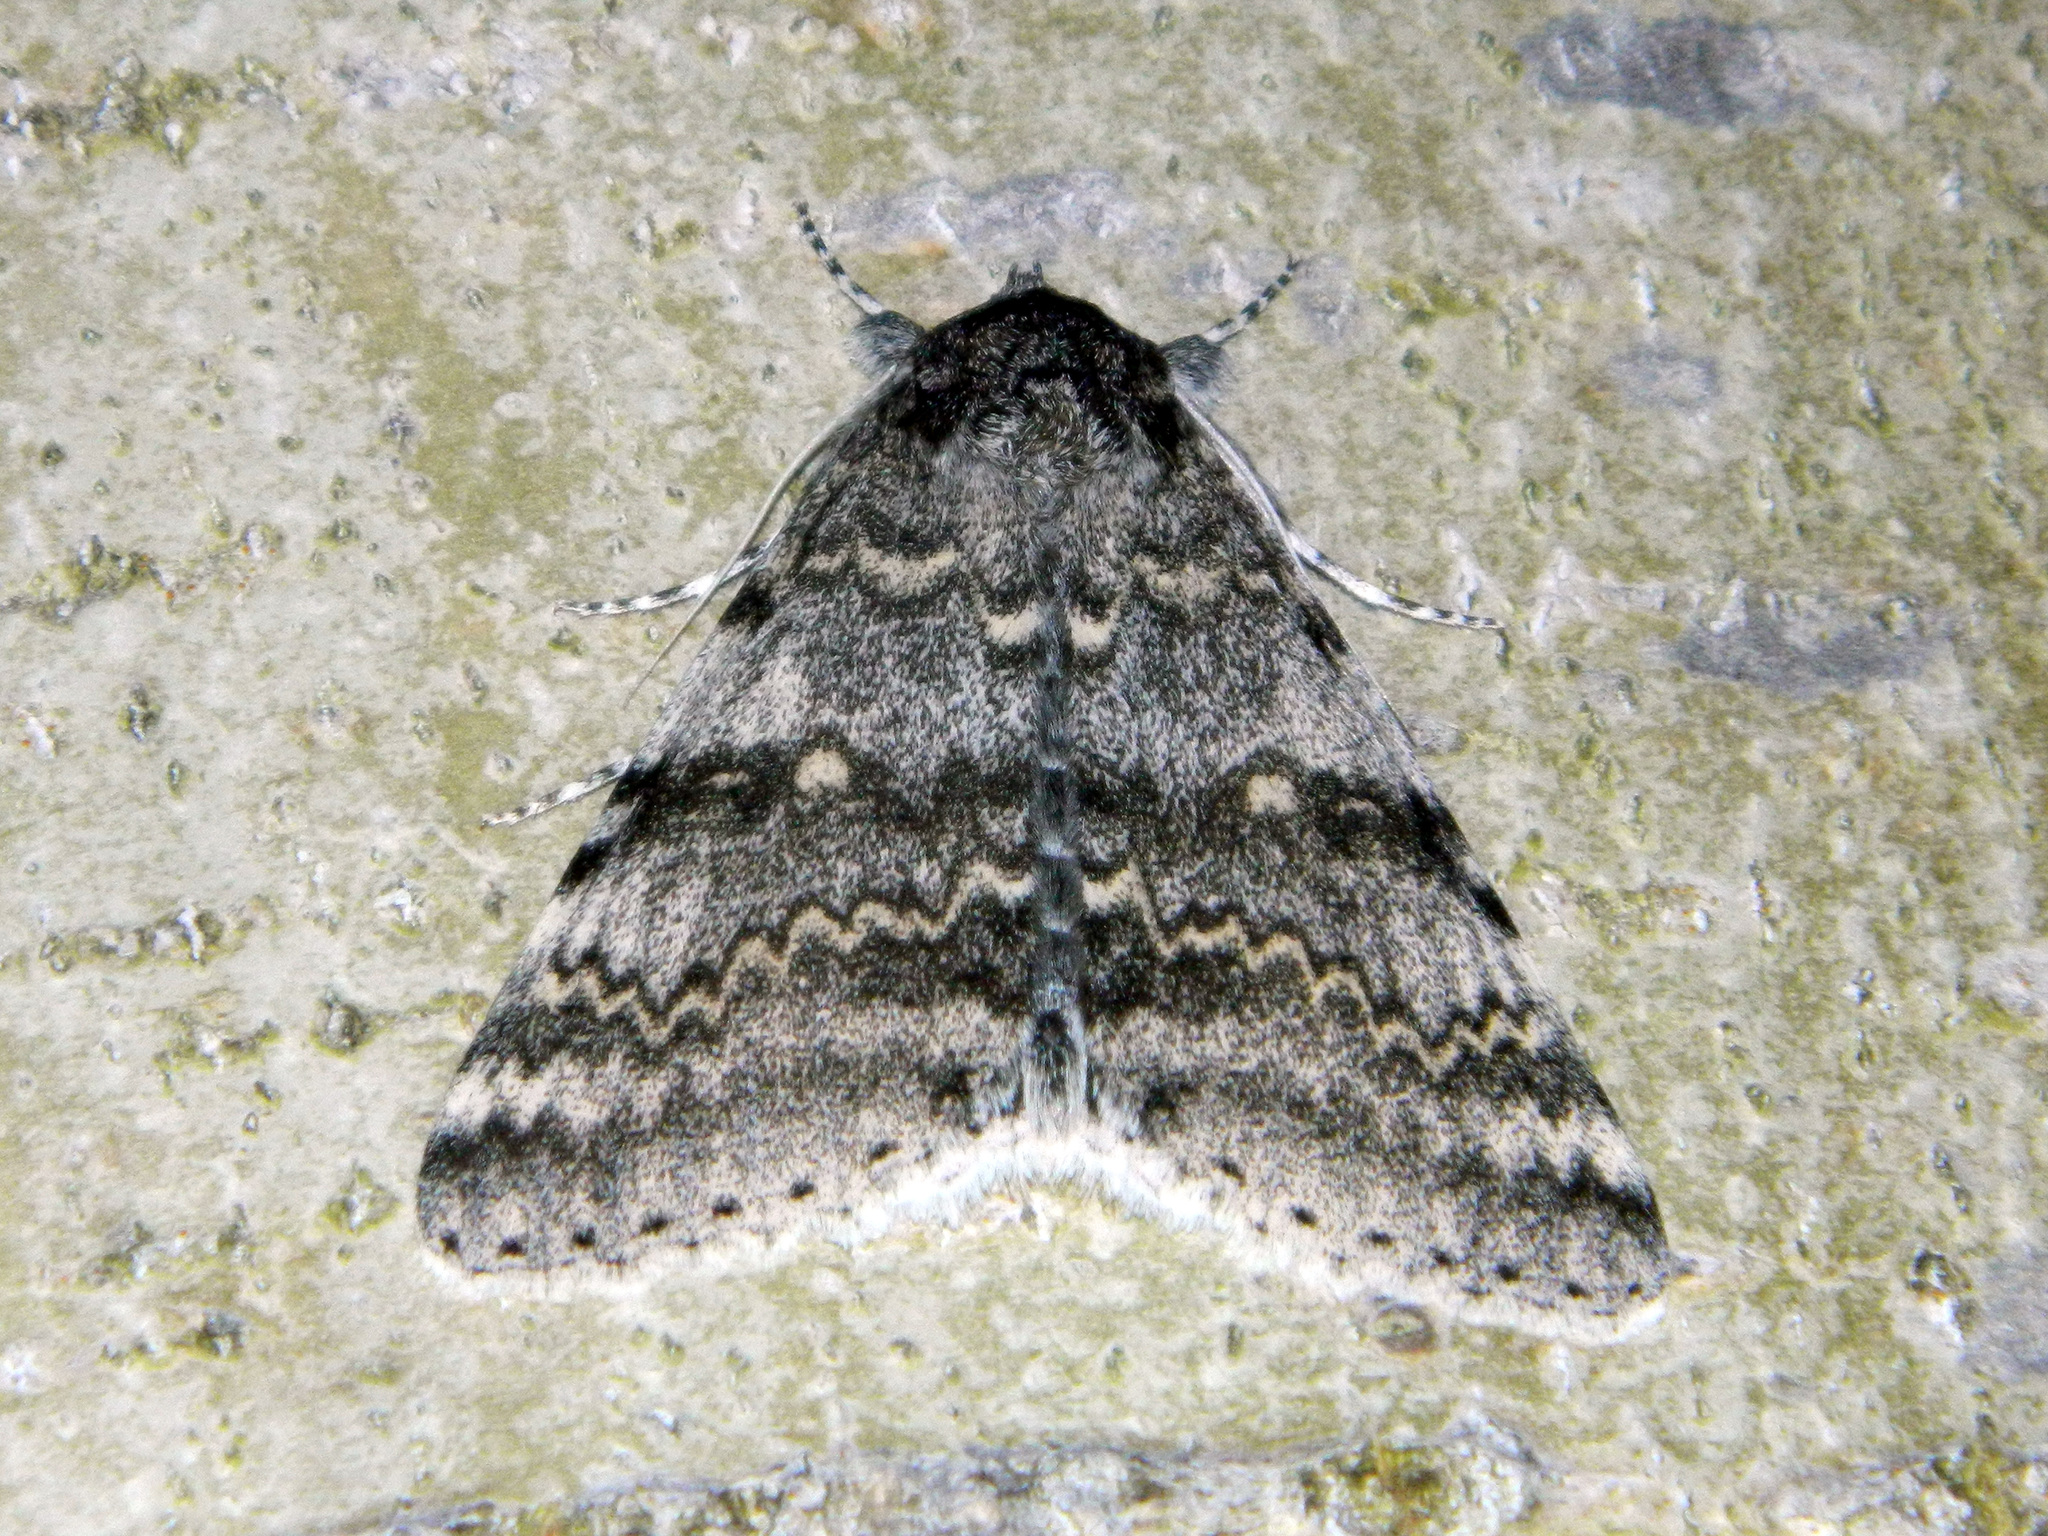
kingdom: Animalia
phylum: Arthropoda
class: Insecta
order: Lepidoptera
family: Erebidae
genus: Catocala
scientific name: Catocala relicta
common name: White underwing
